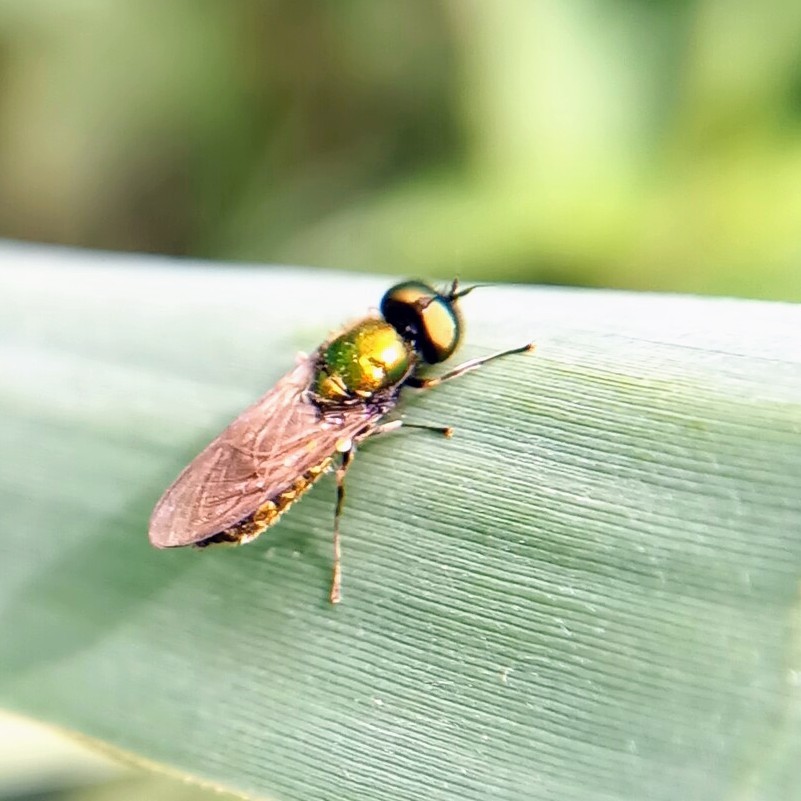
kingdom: Animalia
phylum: Arthropoda
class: Insecta
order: Diptera
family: Stratiomyidae
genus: Chloromyia
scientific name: Chloromyia formosa
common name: Soldier fly
